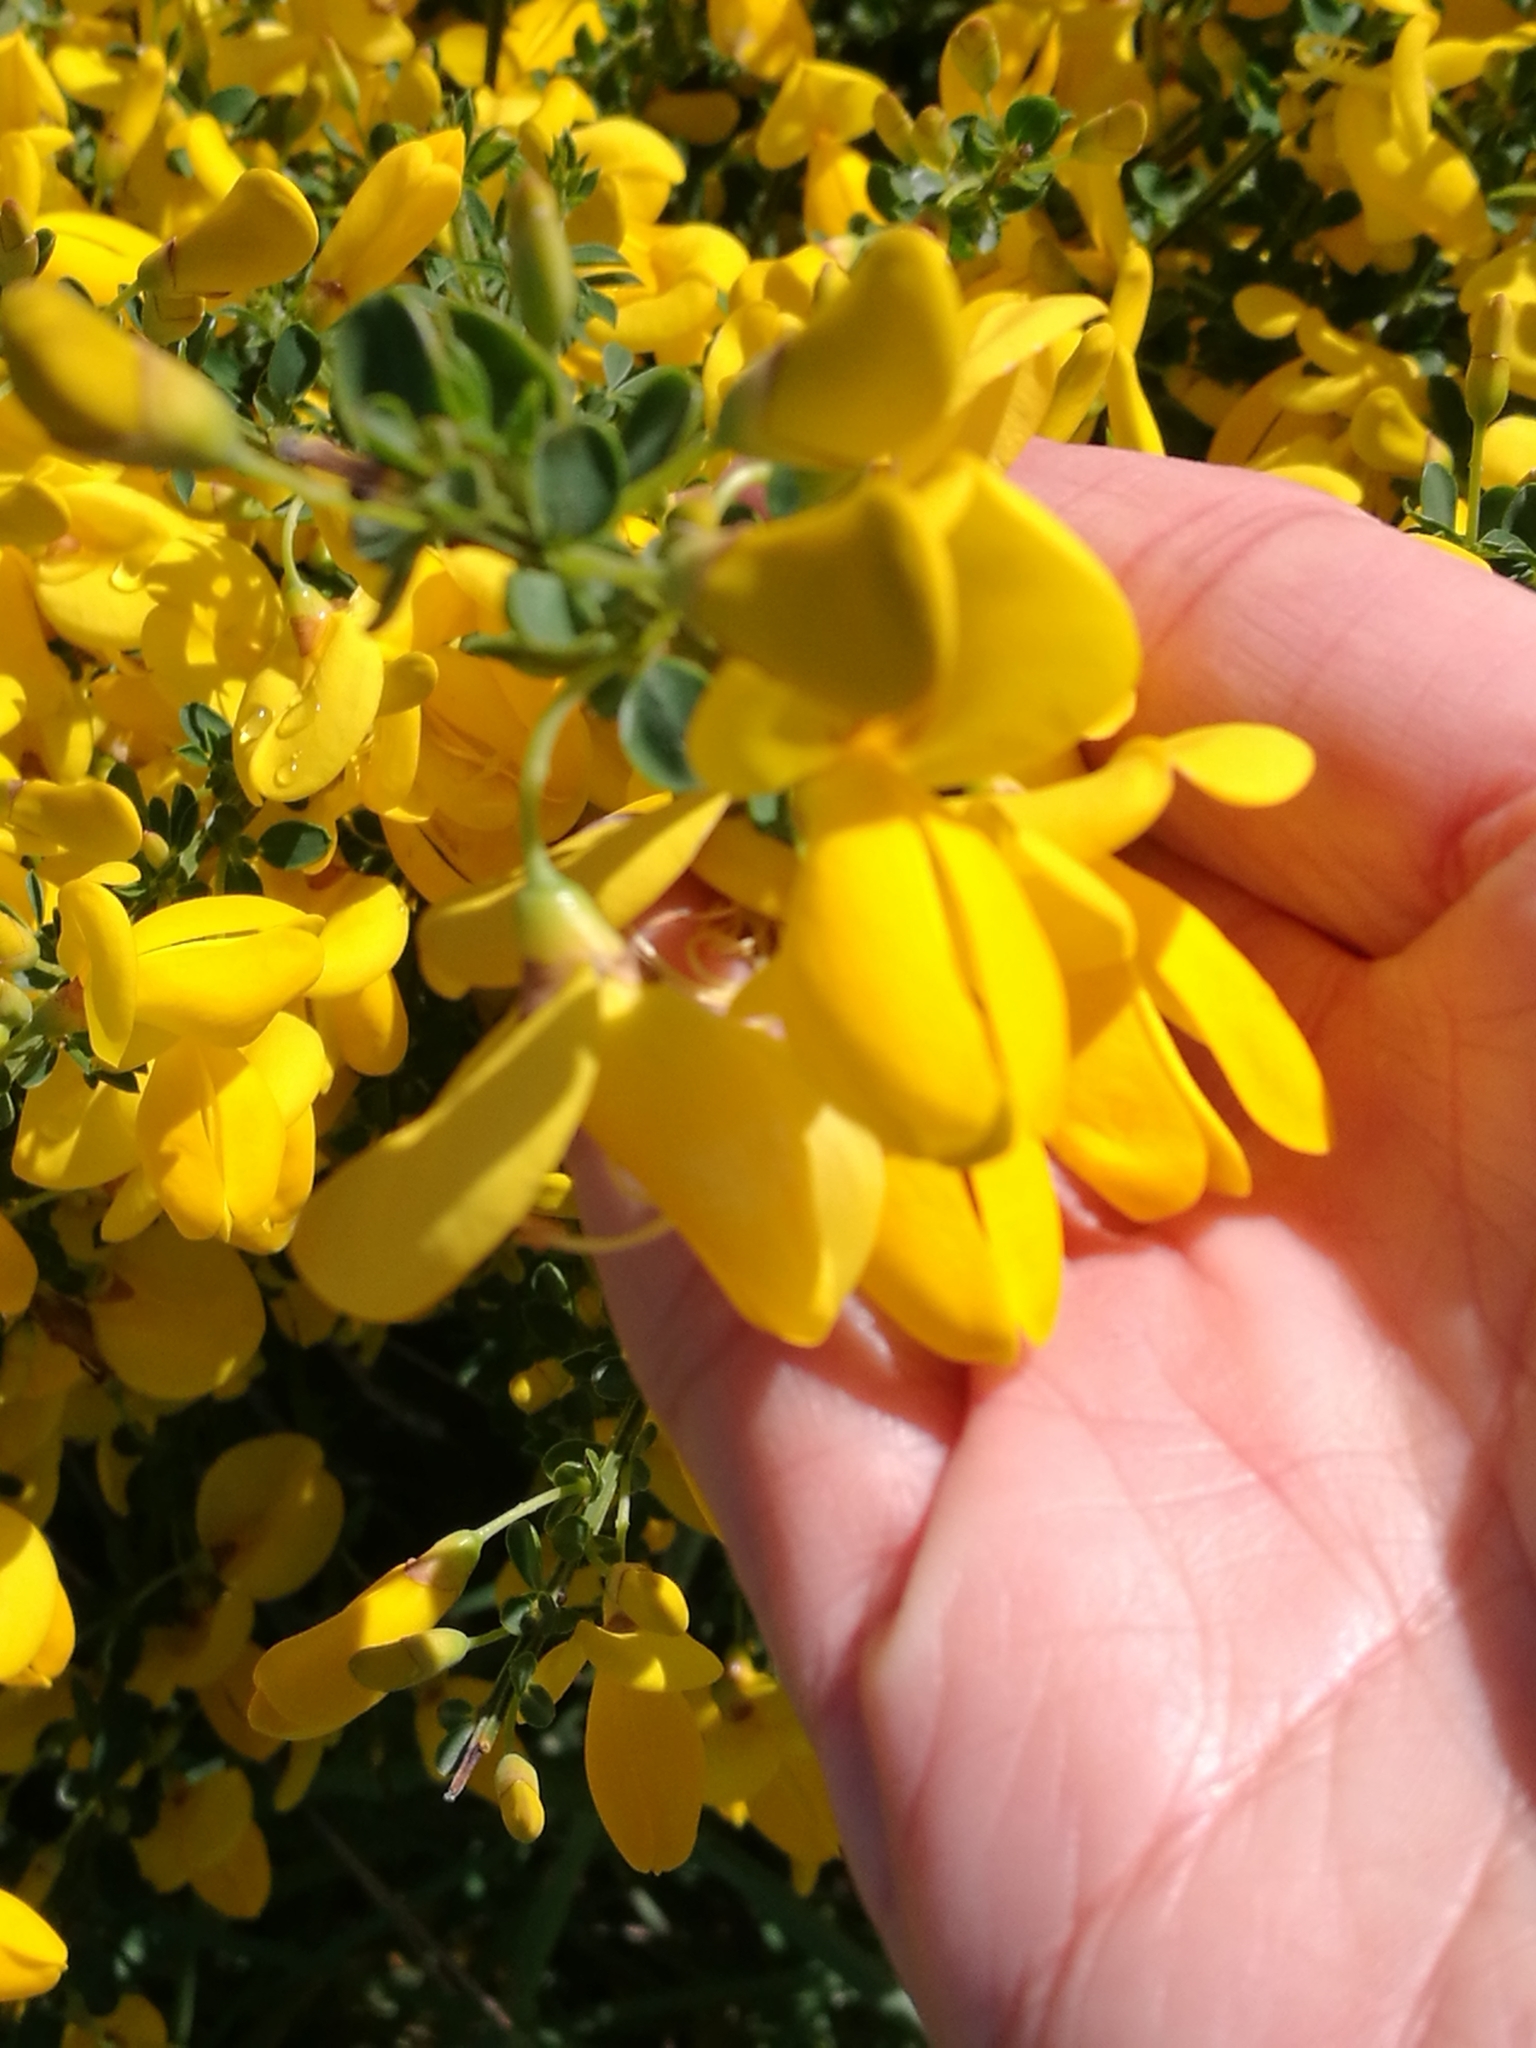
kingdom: Plantae
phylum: Tracheophyta
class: Magnoliopsida
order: Fabales
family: Fabaceae
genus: Cytisus
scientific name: Cytisus scoparius
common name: Scotch broom
